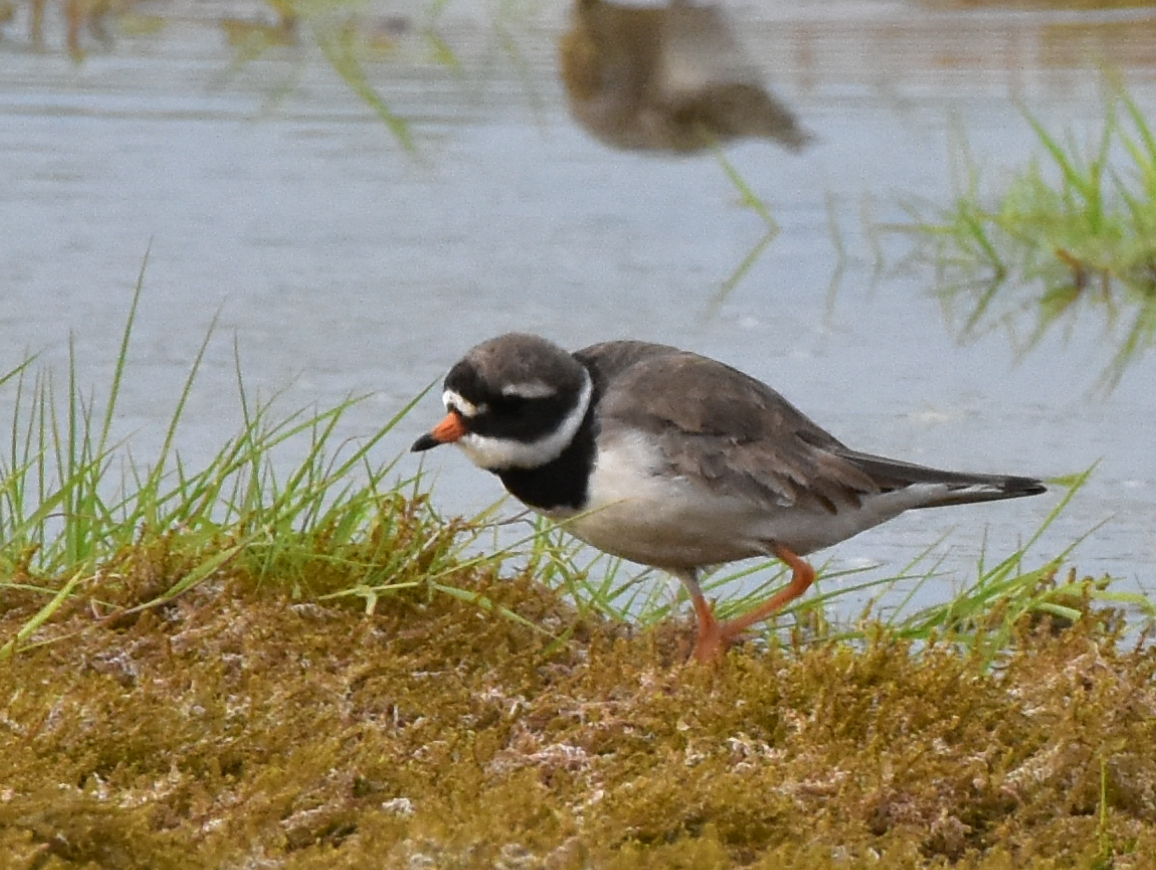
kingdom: Animalia
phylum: Chordata
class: Aves
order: Charadriiformes
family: Charadriidae
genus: Charadrius
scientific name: Charadrius hiaticula
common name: Common ringed plover
